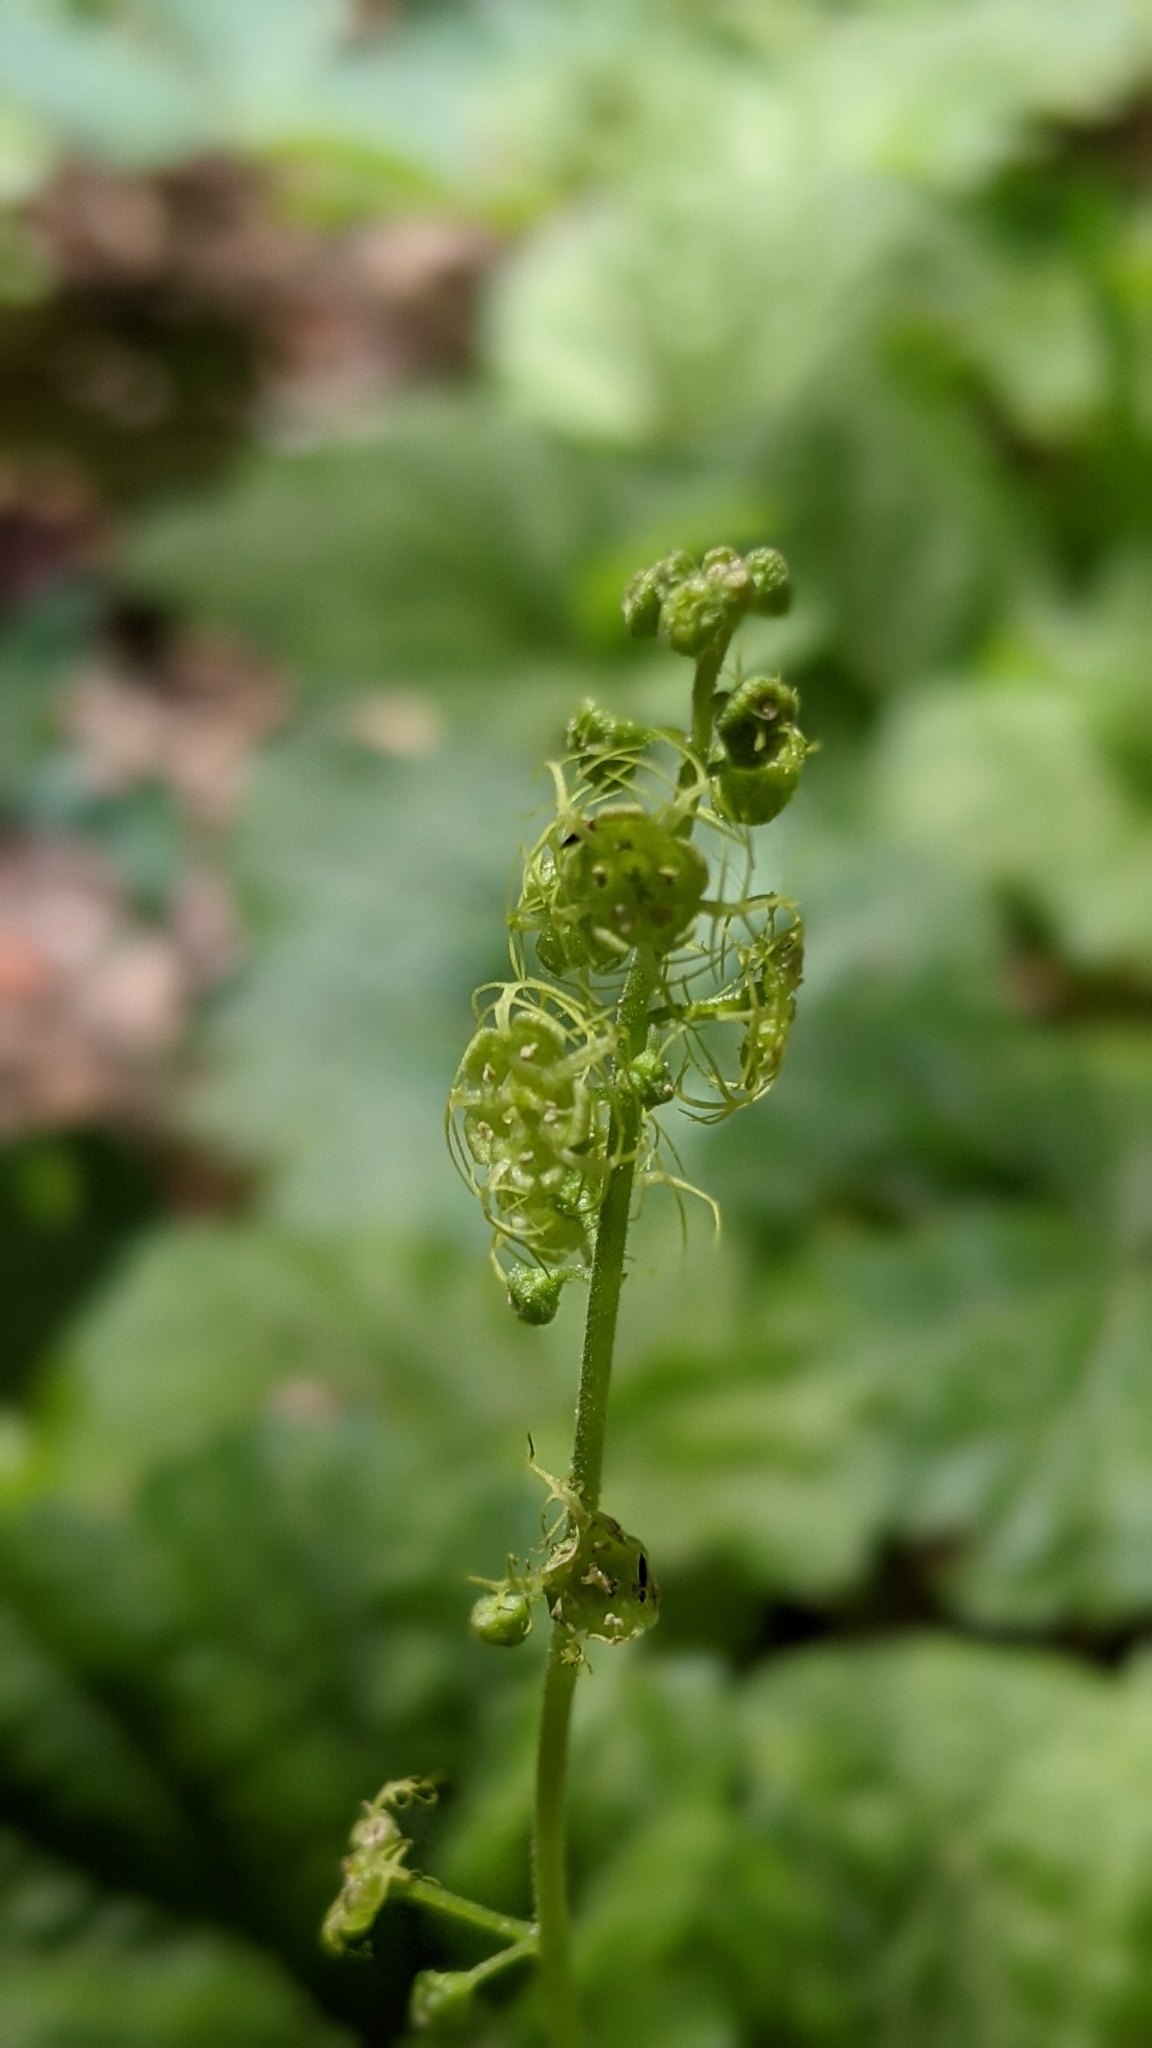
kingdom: Plantae
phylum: Tracheophyta
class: Magnoliopsida
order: Saxifragales
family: Saxifragaceae
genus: Brewerimitella
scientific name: Brewerimitella breweri
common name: Brewer's bishop's-cap
